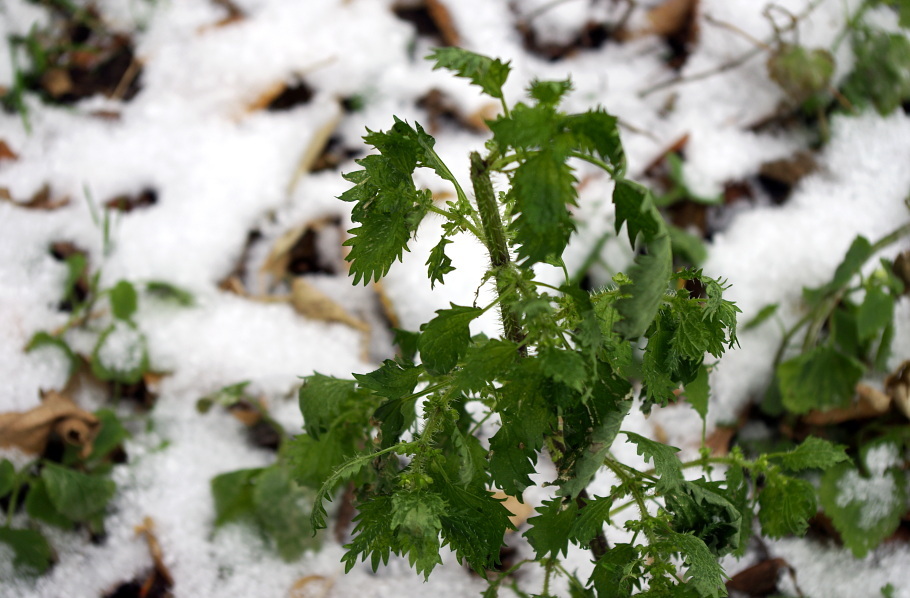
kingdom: Plantae
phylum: Tracheophyta
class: Magnoliopsida
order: Rosales
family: Urticaceae
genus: Urtica
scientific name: Urtica urens
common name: Dwarf nettle
